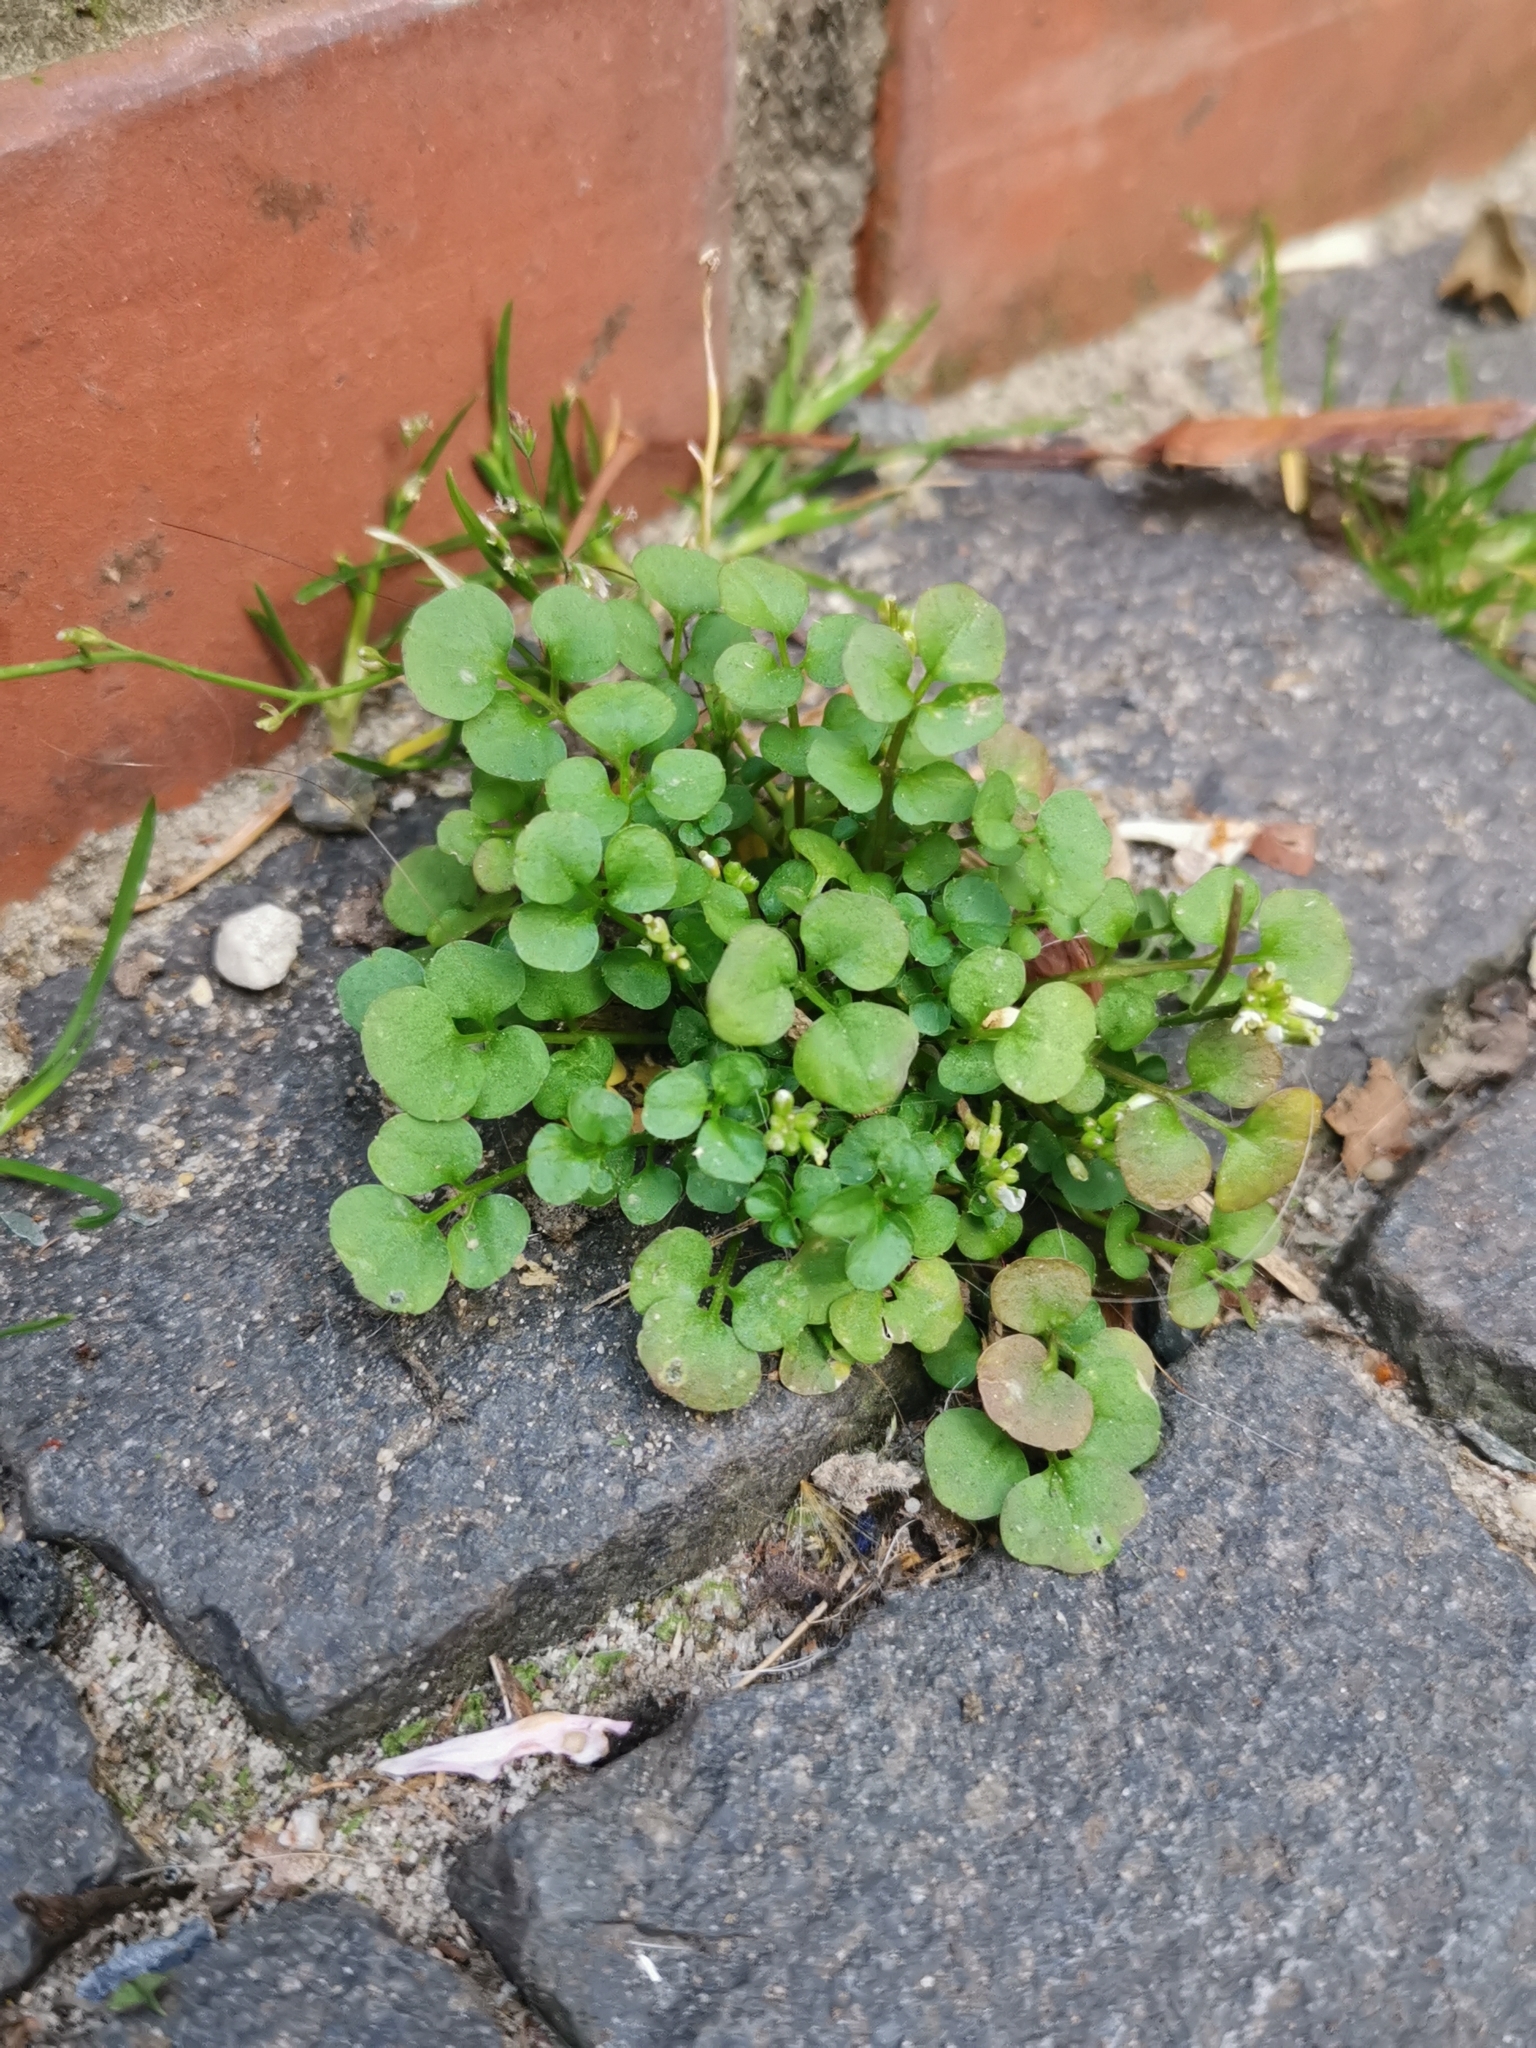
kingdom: Plantae
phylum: Tracheophyta
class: Magnoliopsida
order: Brassicales
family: Brassicaceae
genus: Cardamine
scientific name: Cardamine hirsuta
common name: Hairy bittercress
